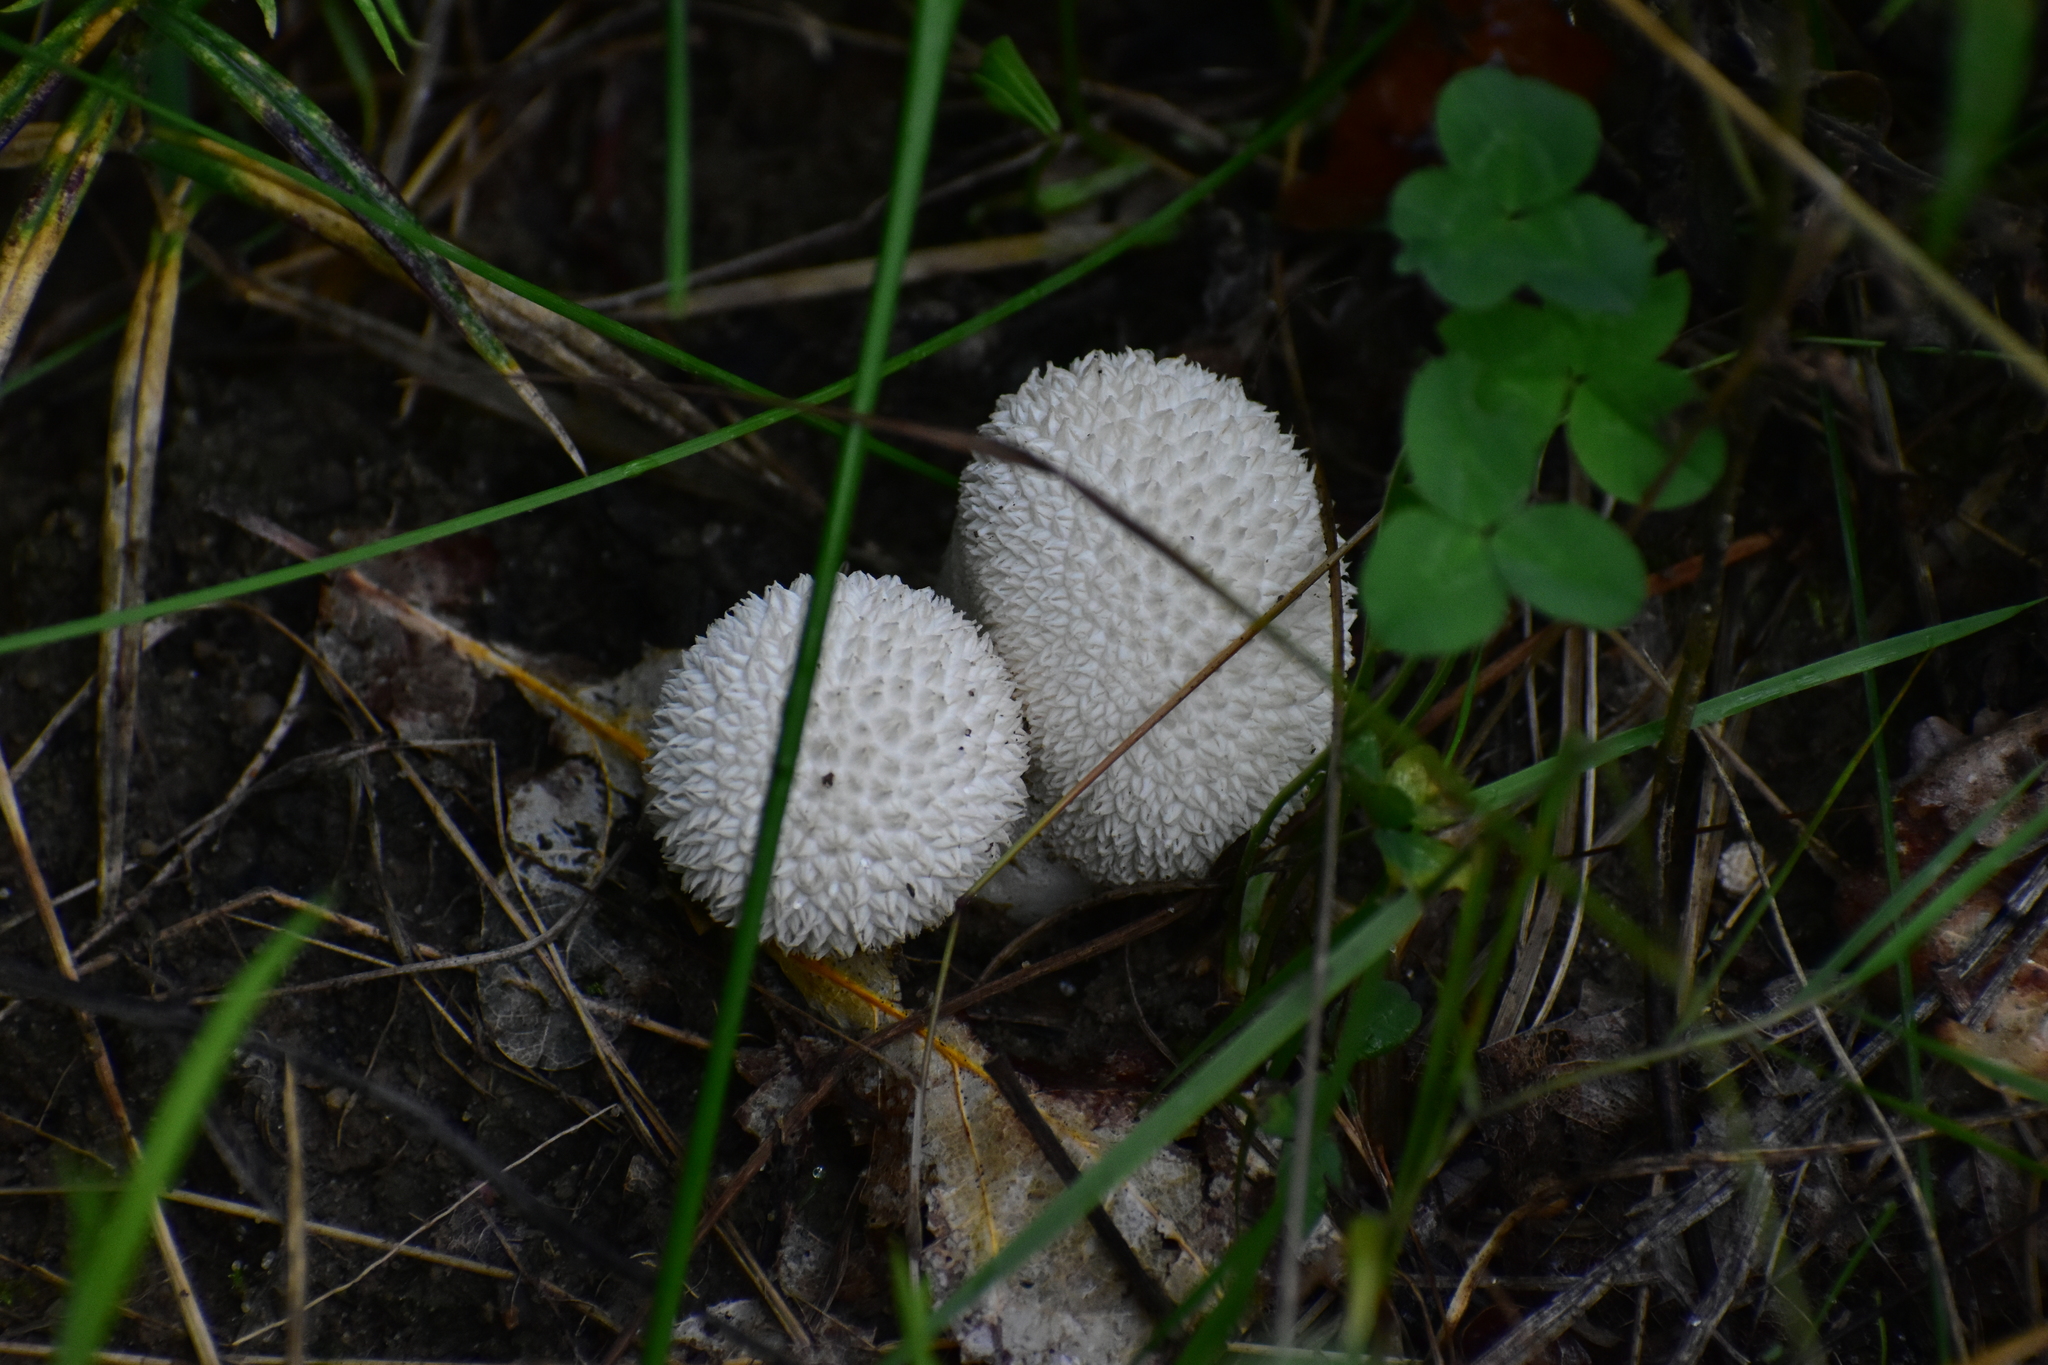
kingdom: Fungi
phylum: Basidiomycota
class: Agaricomycetes
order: Agaricales
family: Lycoperdaceae
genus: Lycoperdon
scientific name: Lycoperdon perlatum
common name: Common puffball
